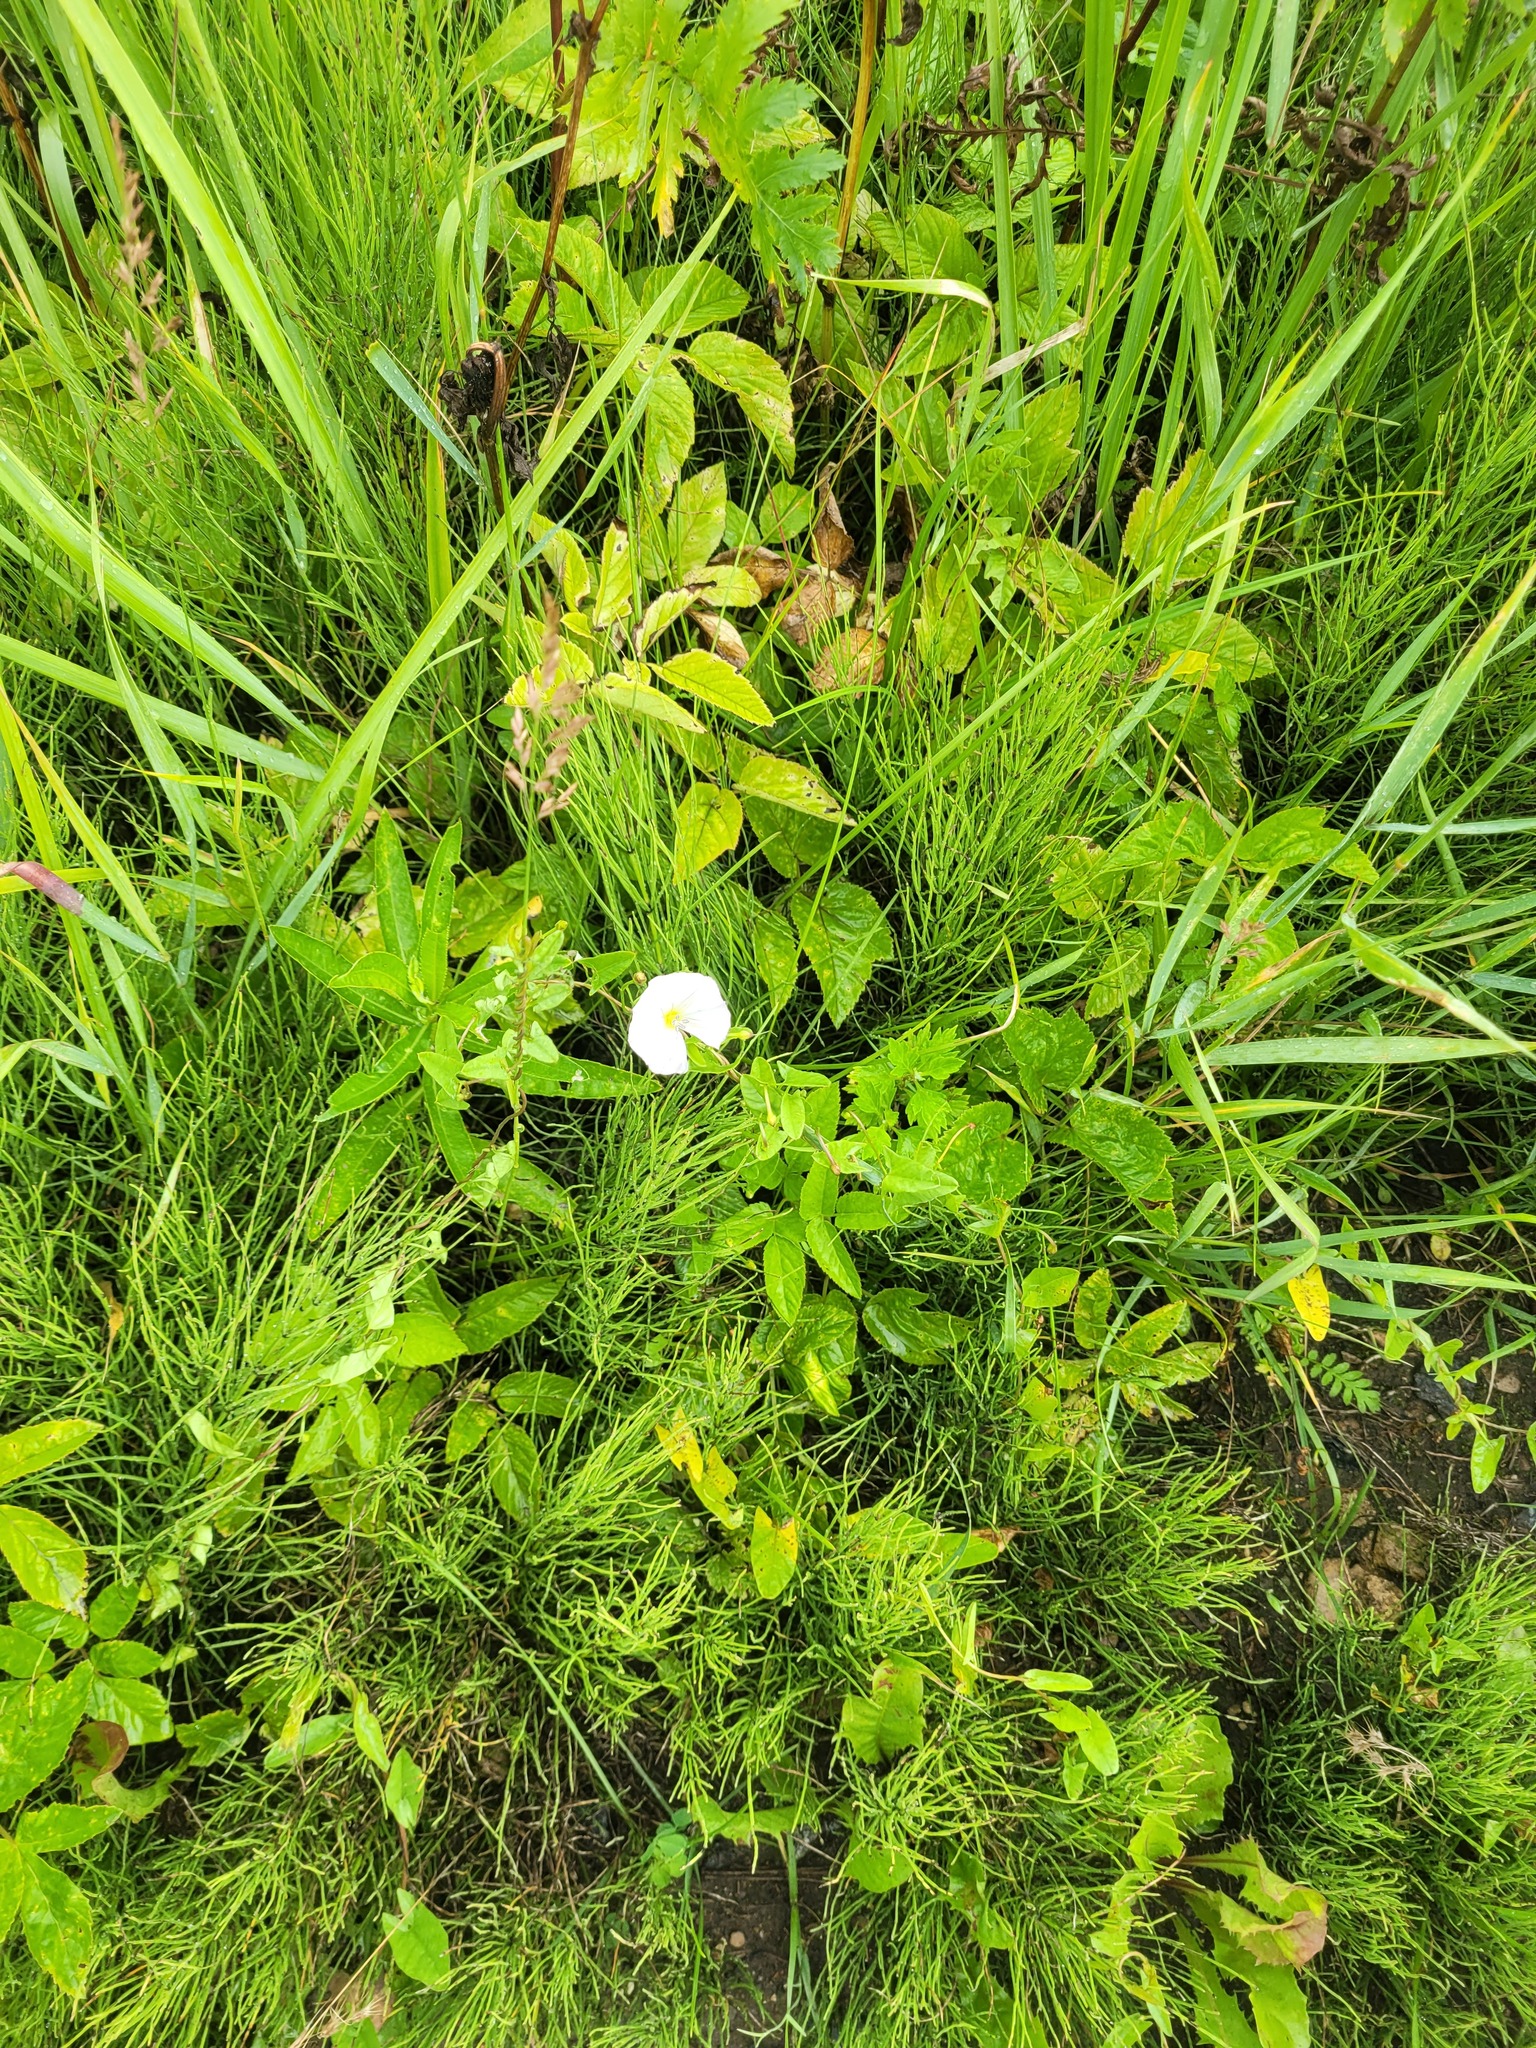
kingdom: Plantae
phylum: Tracheophyta
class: Magnoliopsida
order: Solanales
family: Convolvulaceae
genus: Convolvulus
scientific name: Convolvulus arvensis
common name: Field bindweed
